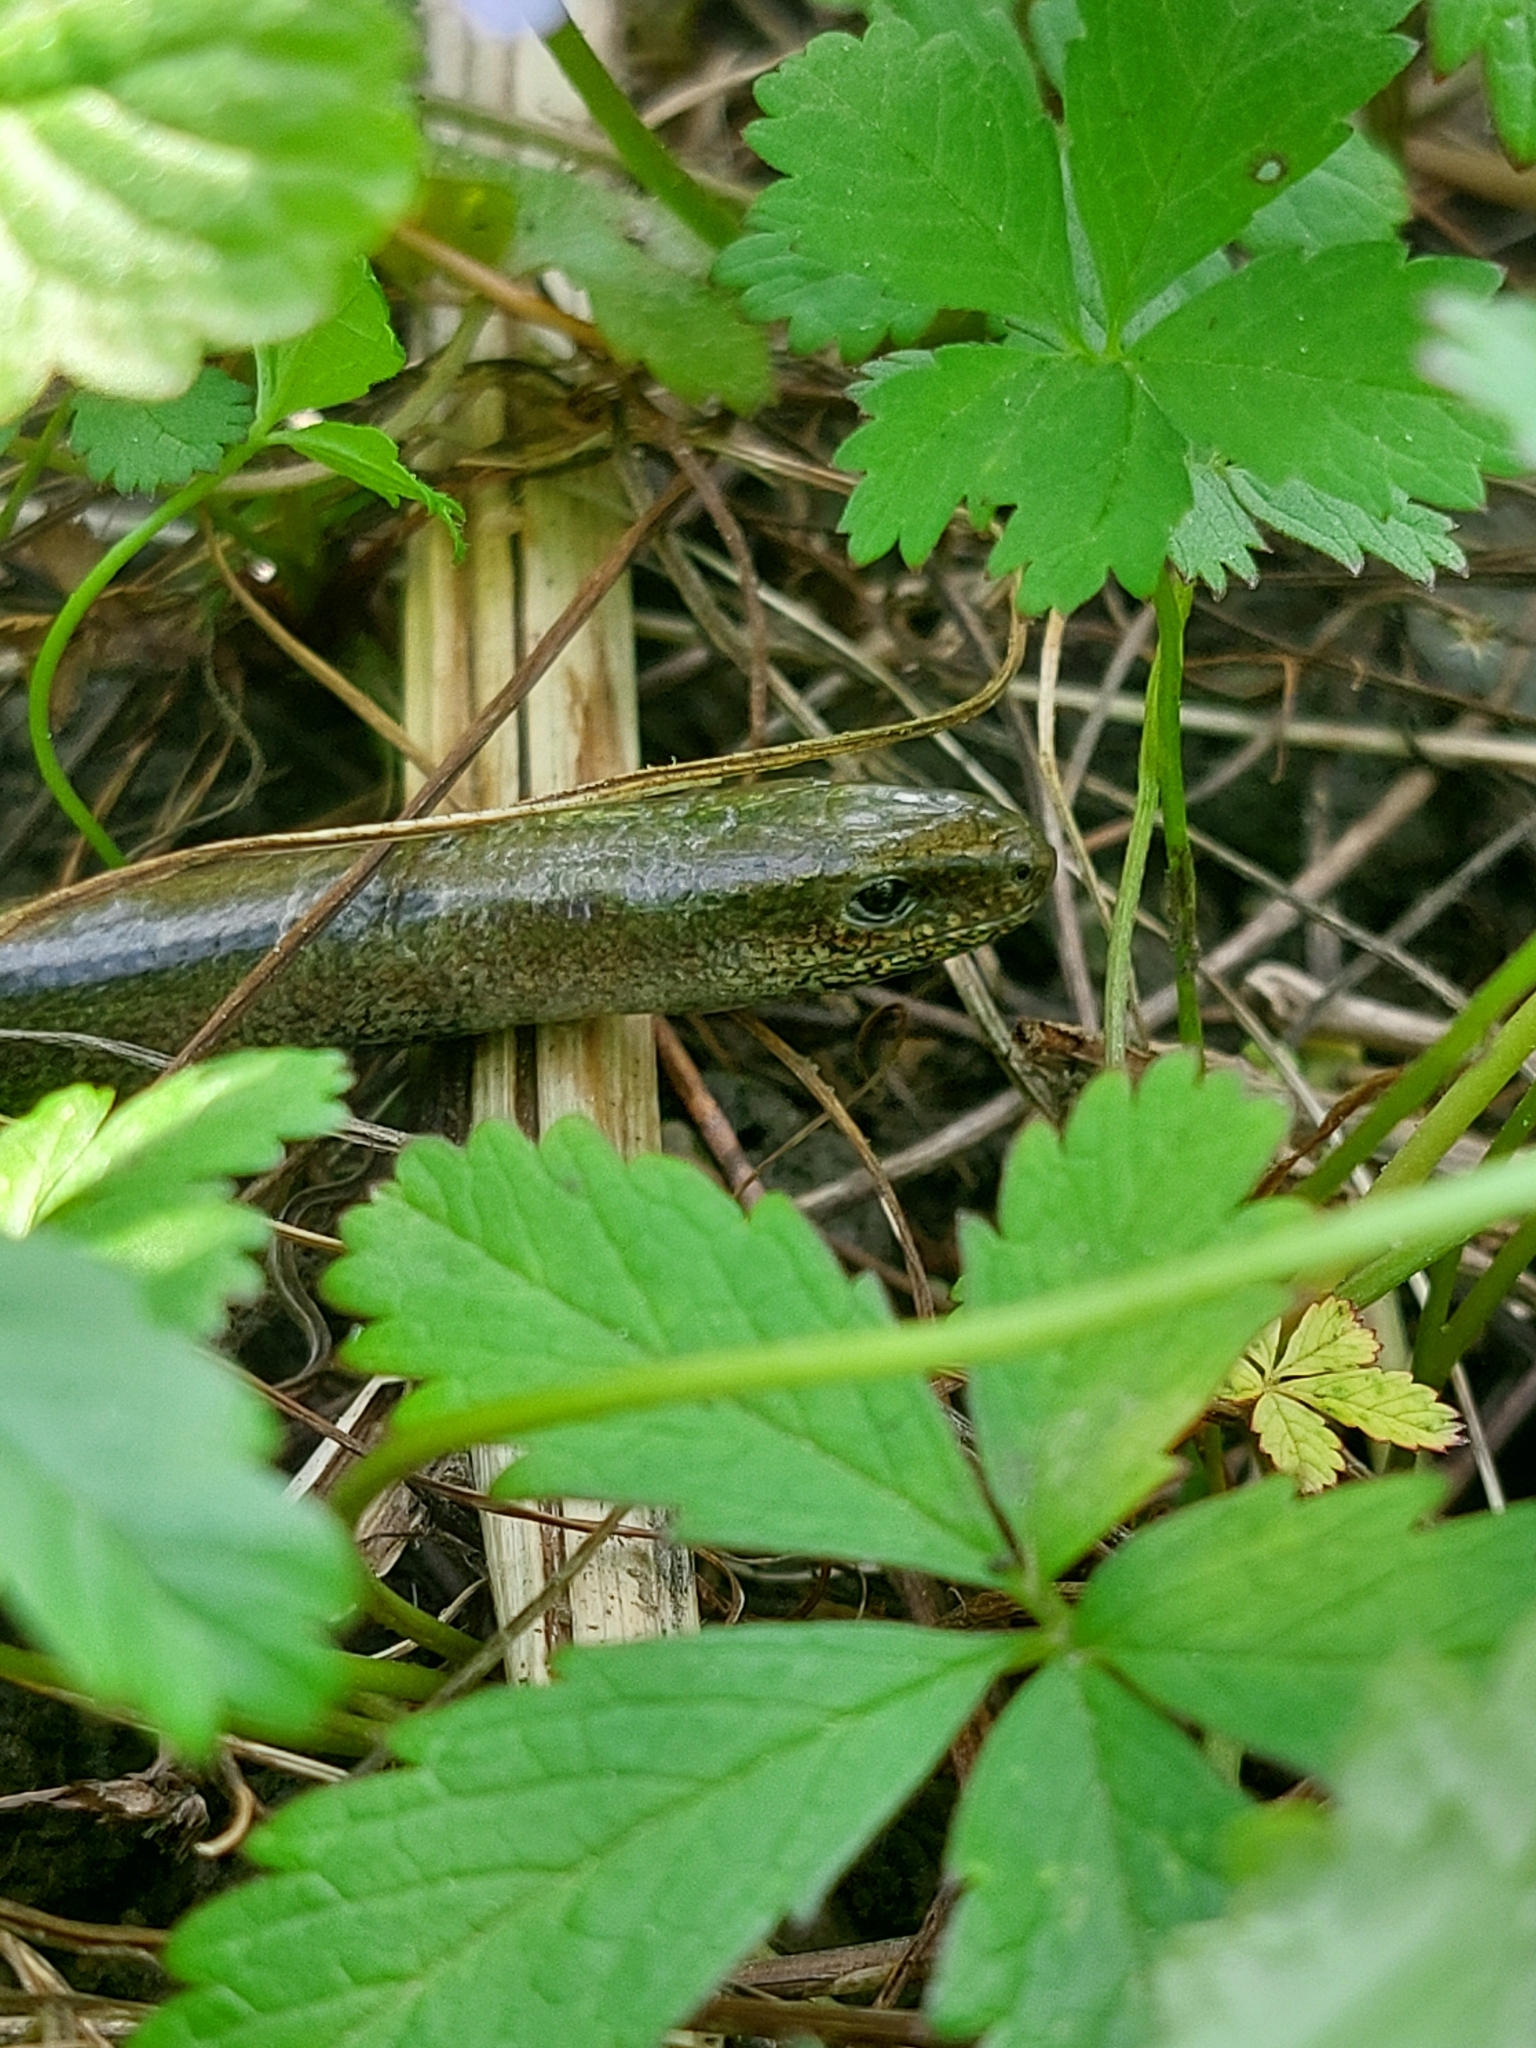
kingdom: Animalia
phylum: Chordata
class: Squamata
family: Anguidae
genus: Anguis
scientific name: Anguis fragilis
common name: Slow worm
